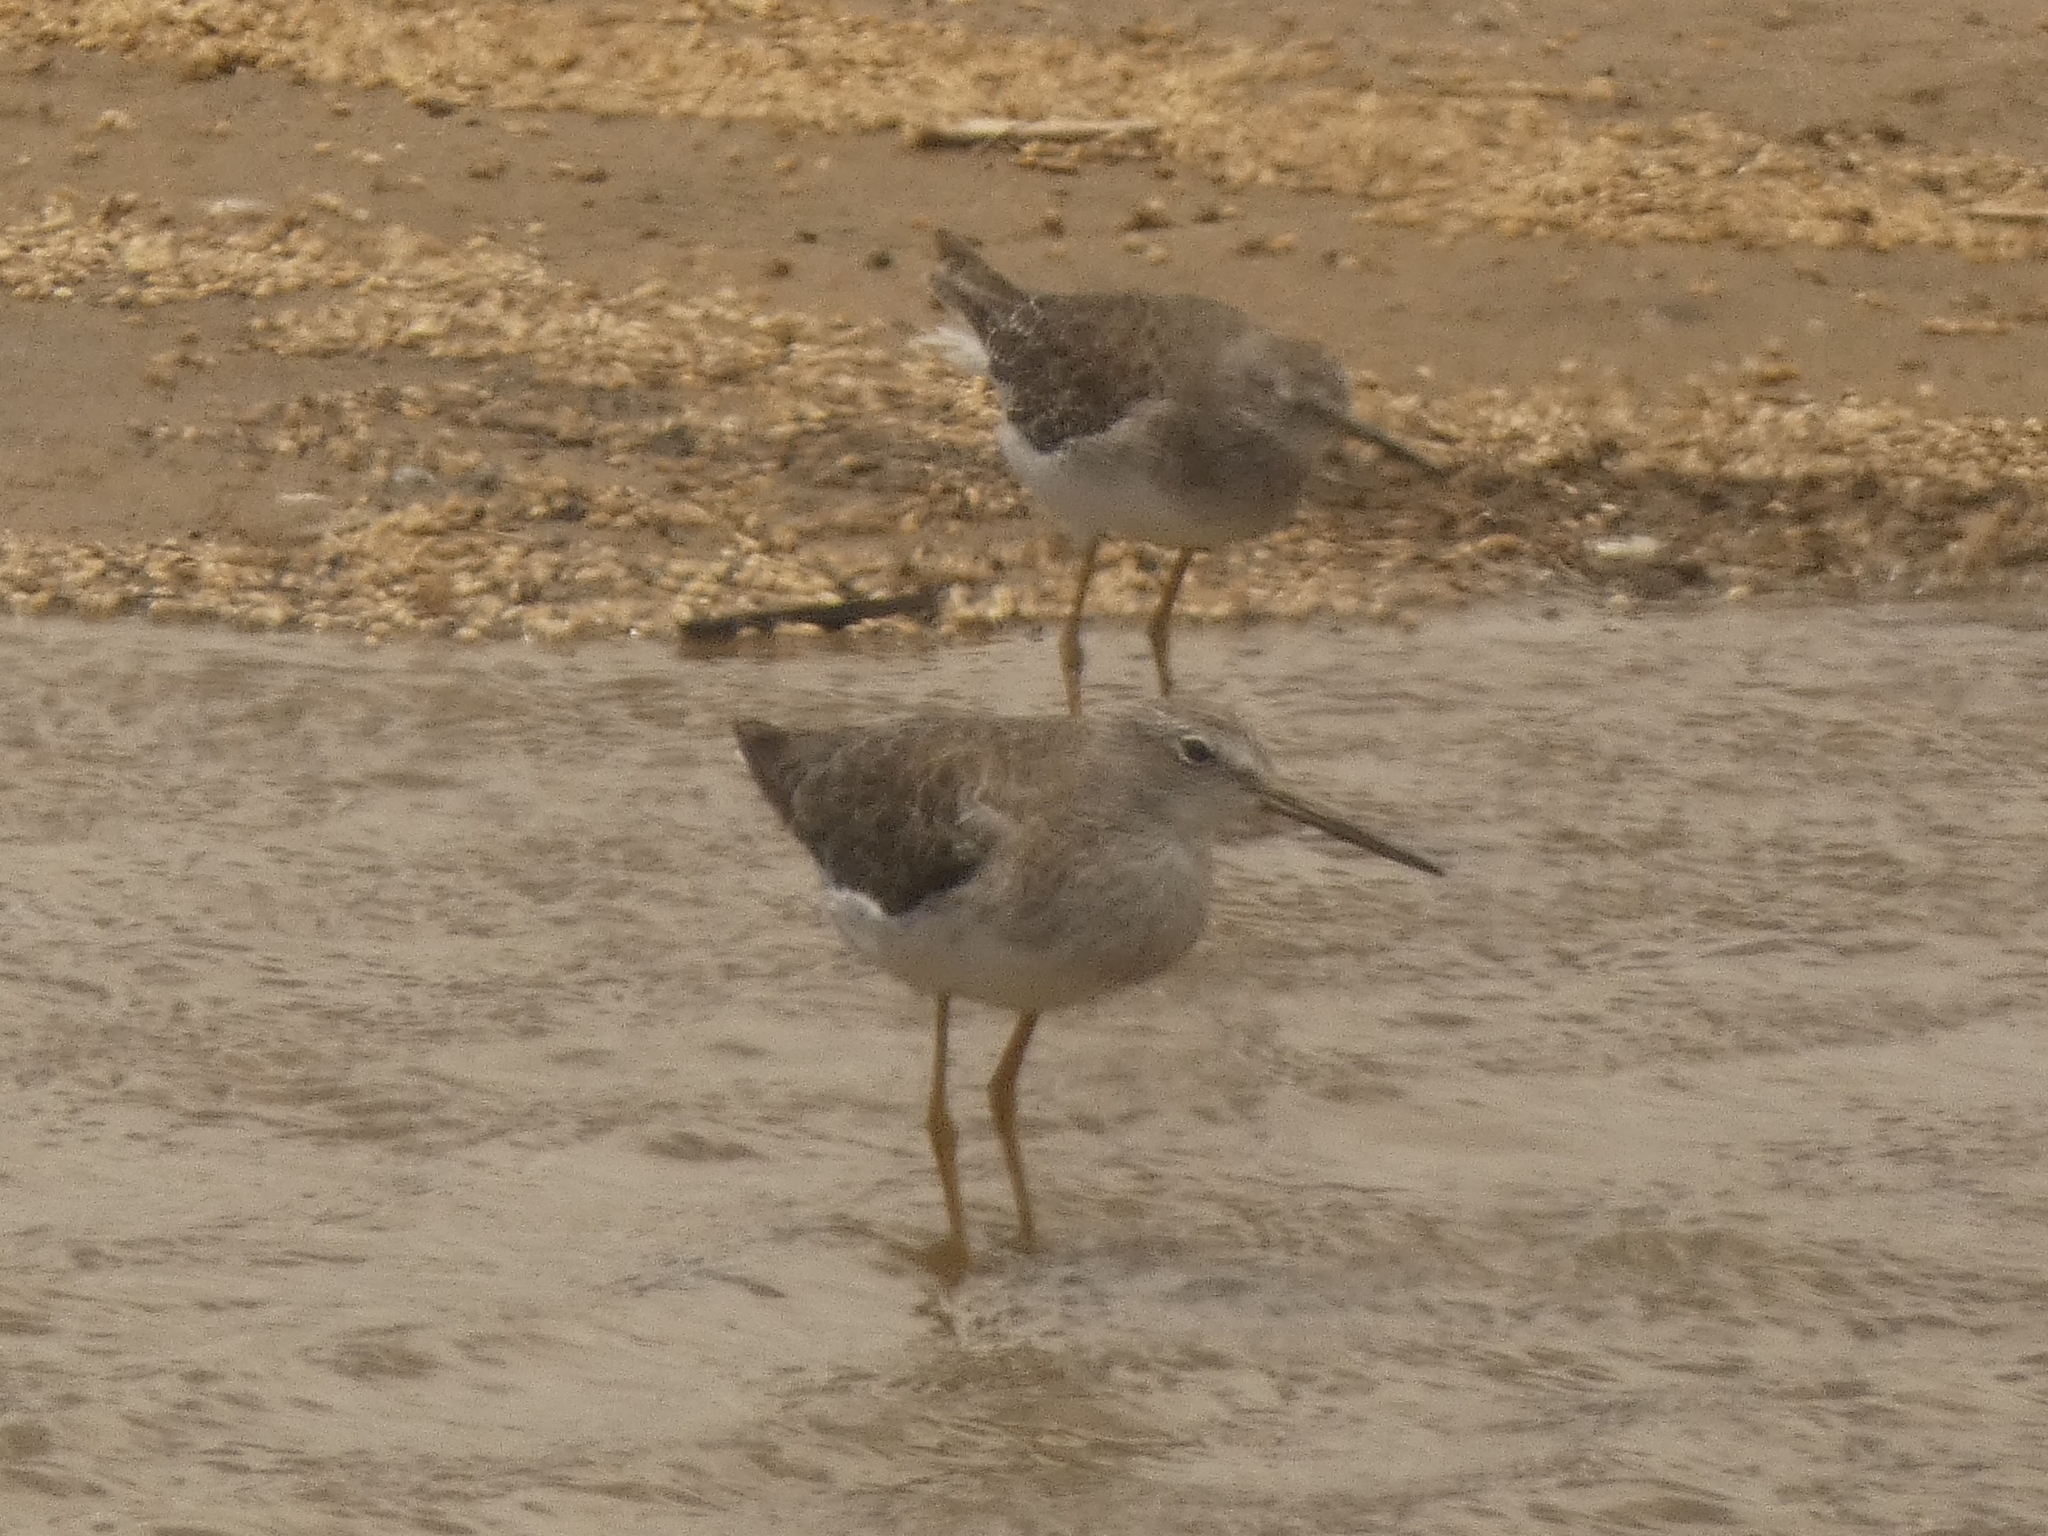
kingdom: Animalia
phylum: Chordata
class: Aves
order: Charadriiformes
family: Scolopacidae
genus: Tringa
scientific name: Tringa melanoleuca
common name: Greater yellowlegs
